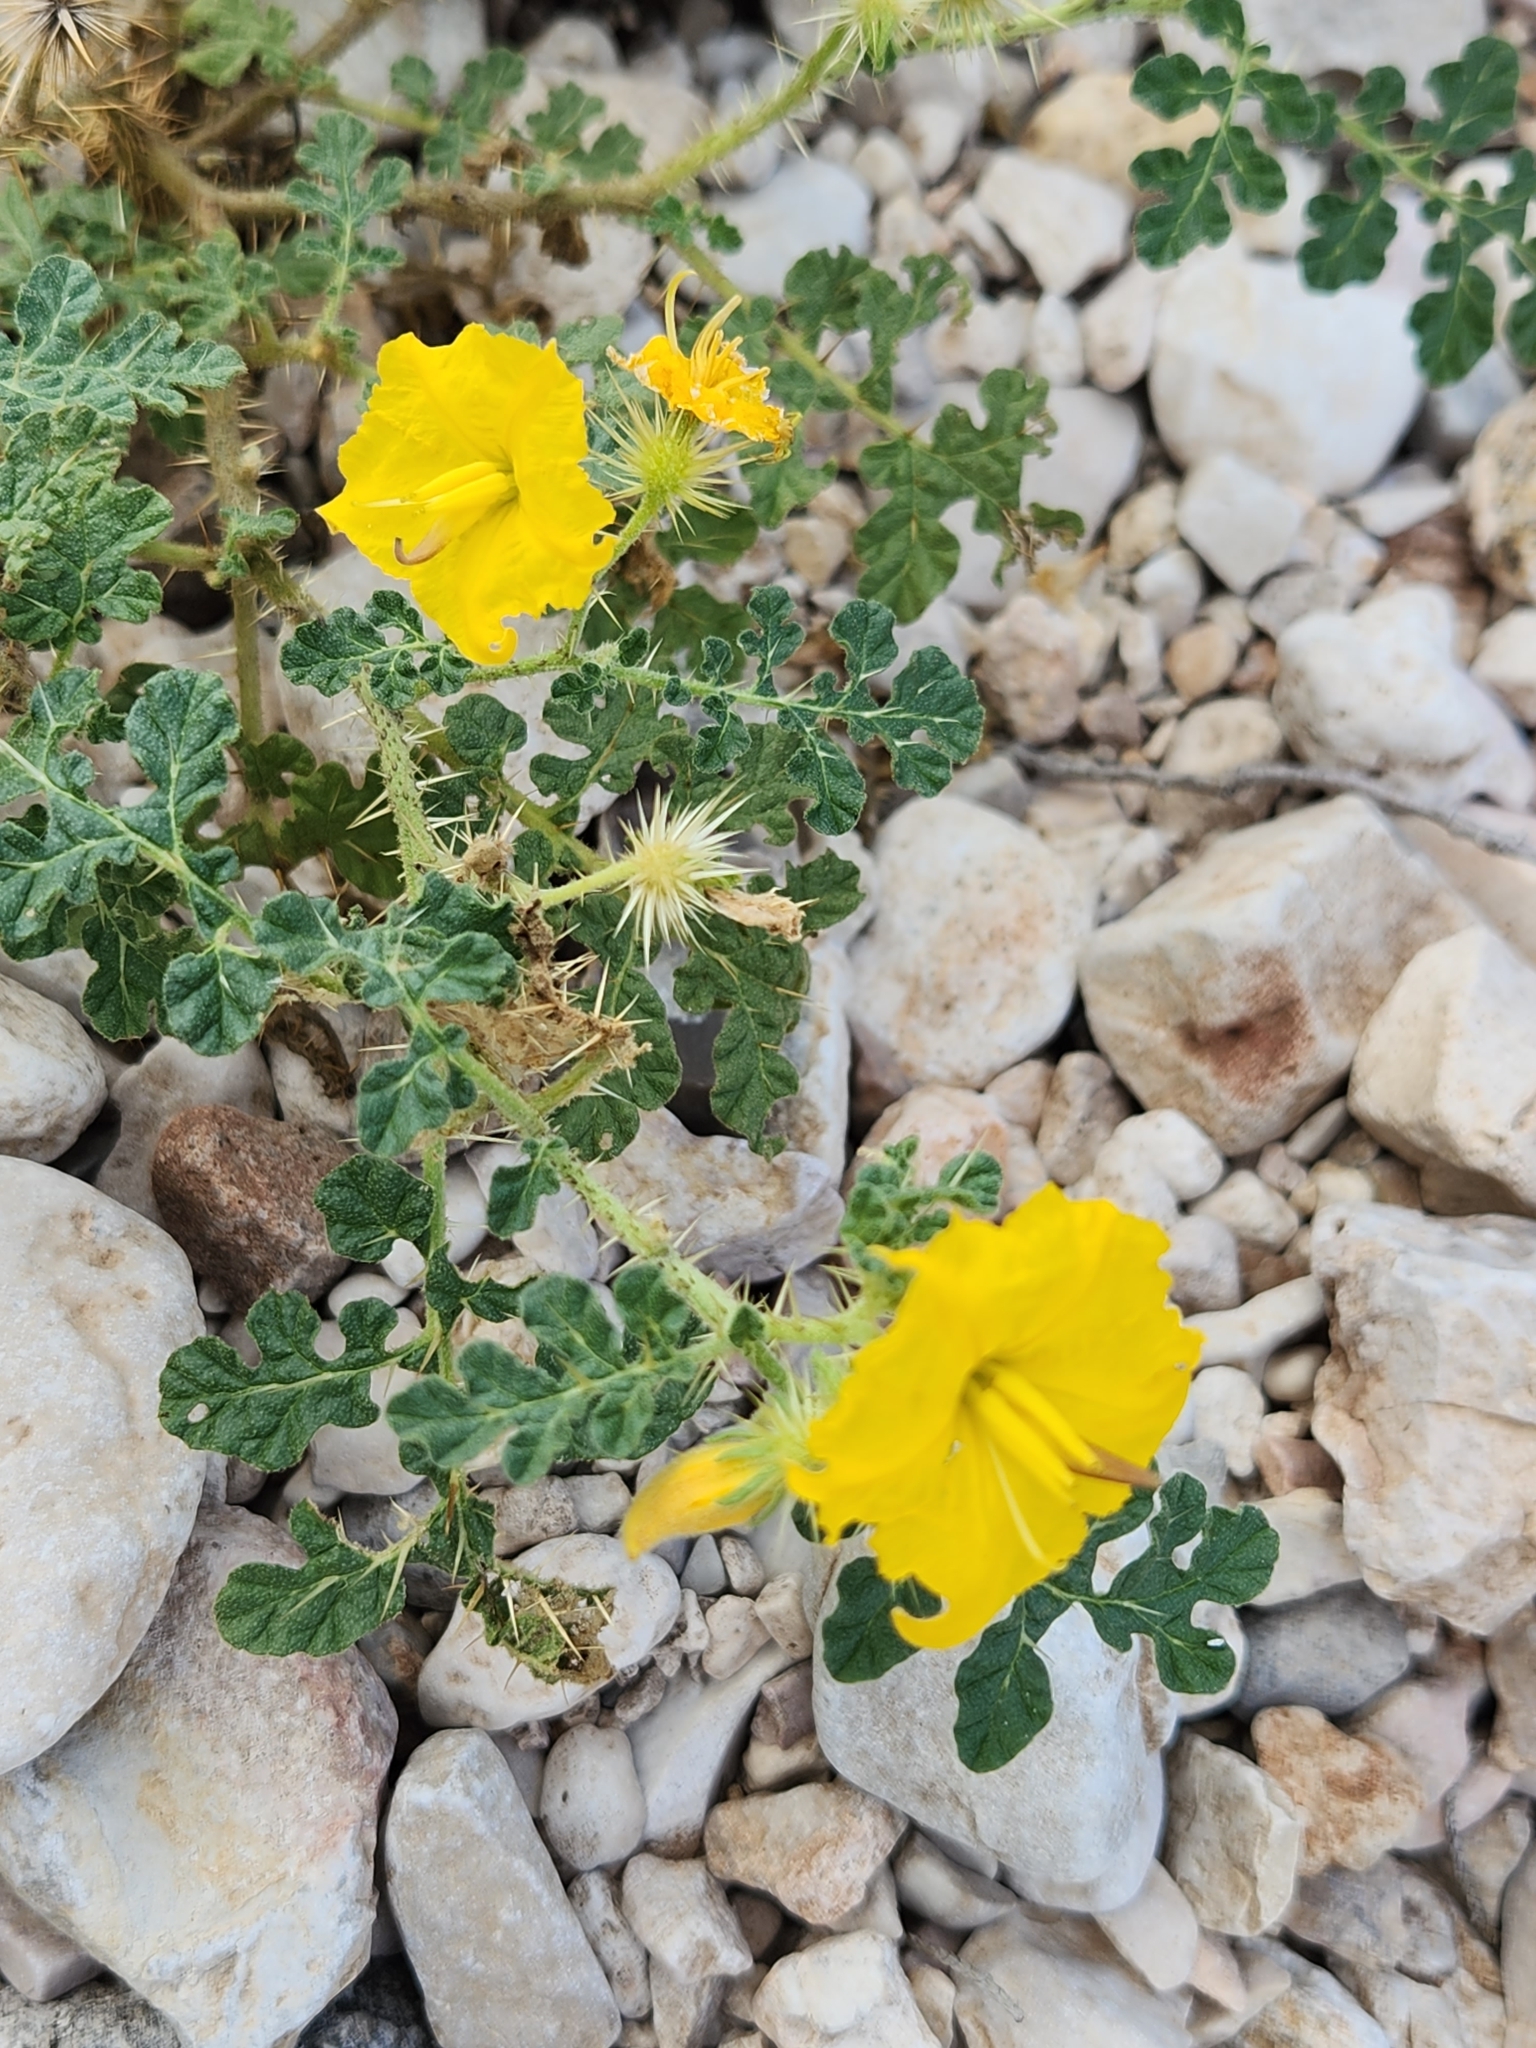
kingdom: Plantae
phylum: Tracheophyta
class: Magnoliopsida
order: Solanales
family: Solanaceae
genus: Solanum
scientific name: Solanum angustifolium
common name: Buffalobur nightshade
